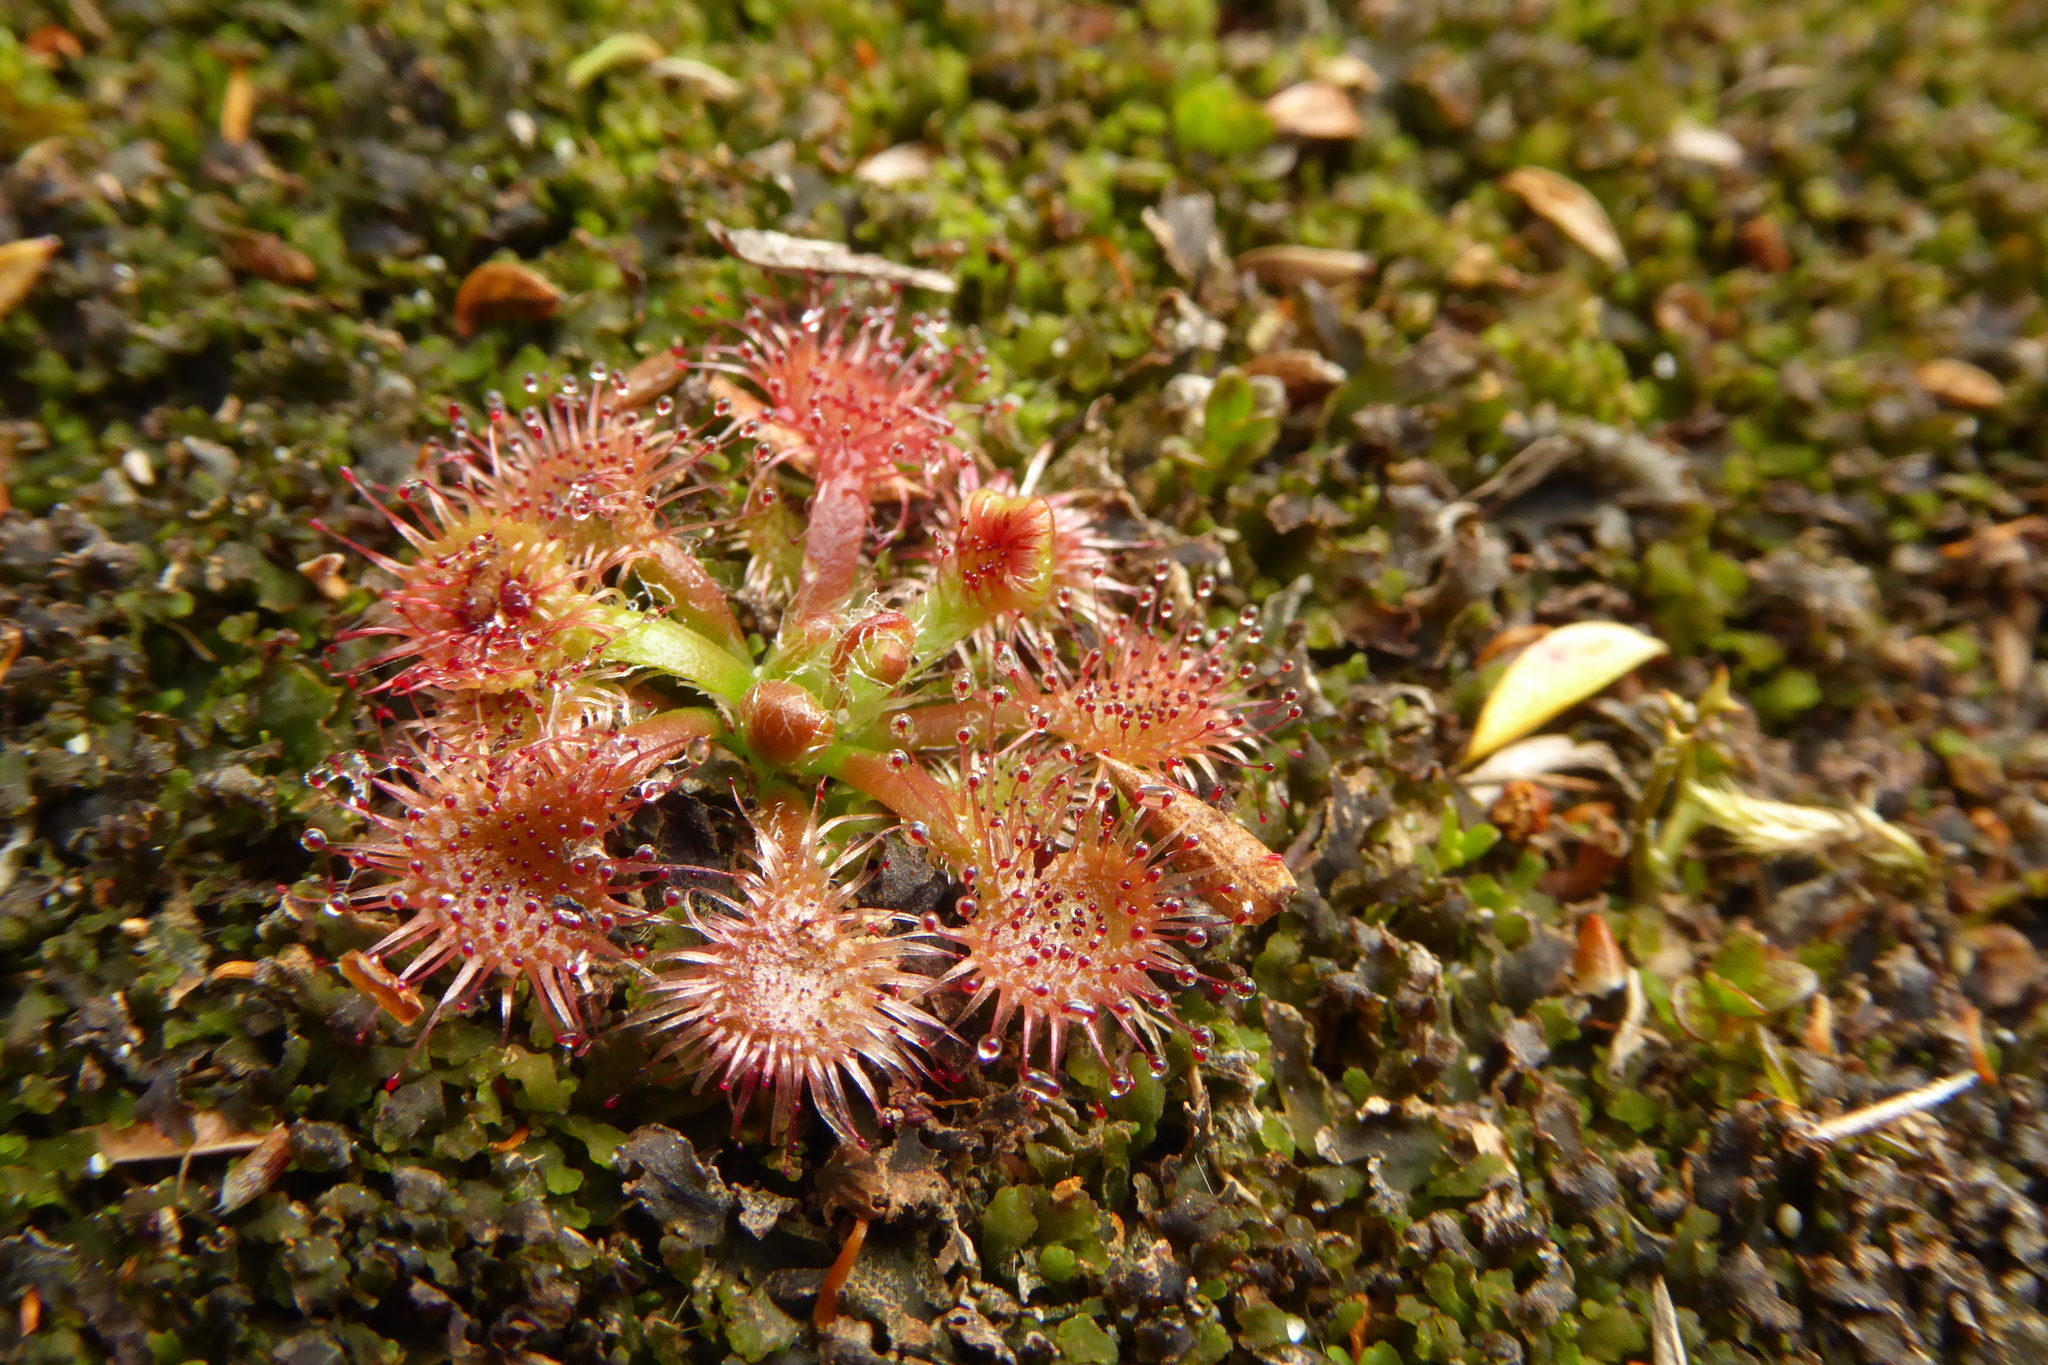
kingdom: Plantae
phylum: Tracheophyta
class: Magnoliopsida
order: Caryophyllales
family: Droseraceae
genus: Drosera
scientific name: Drosera spatulata
